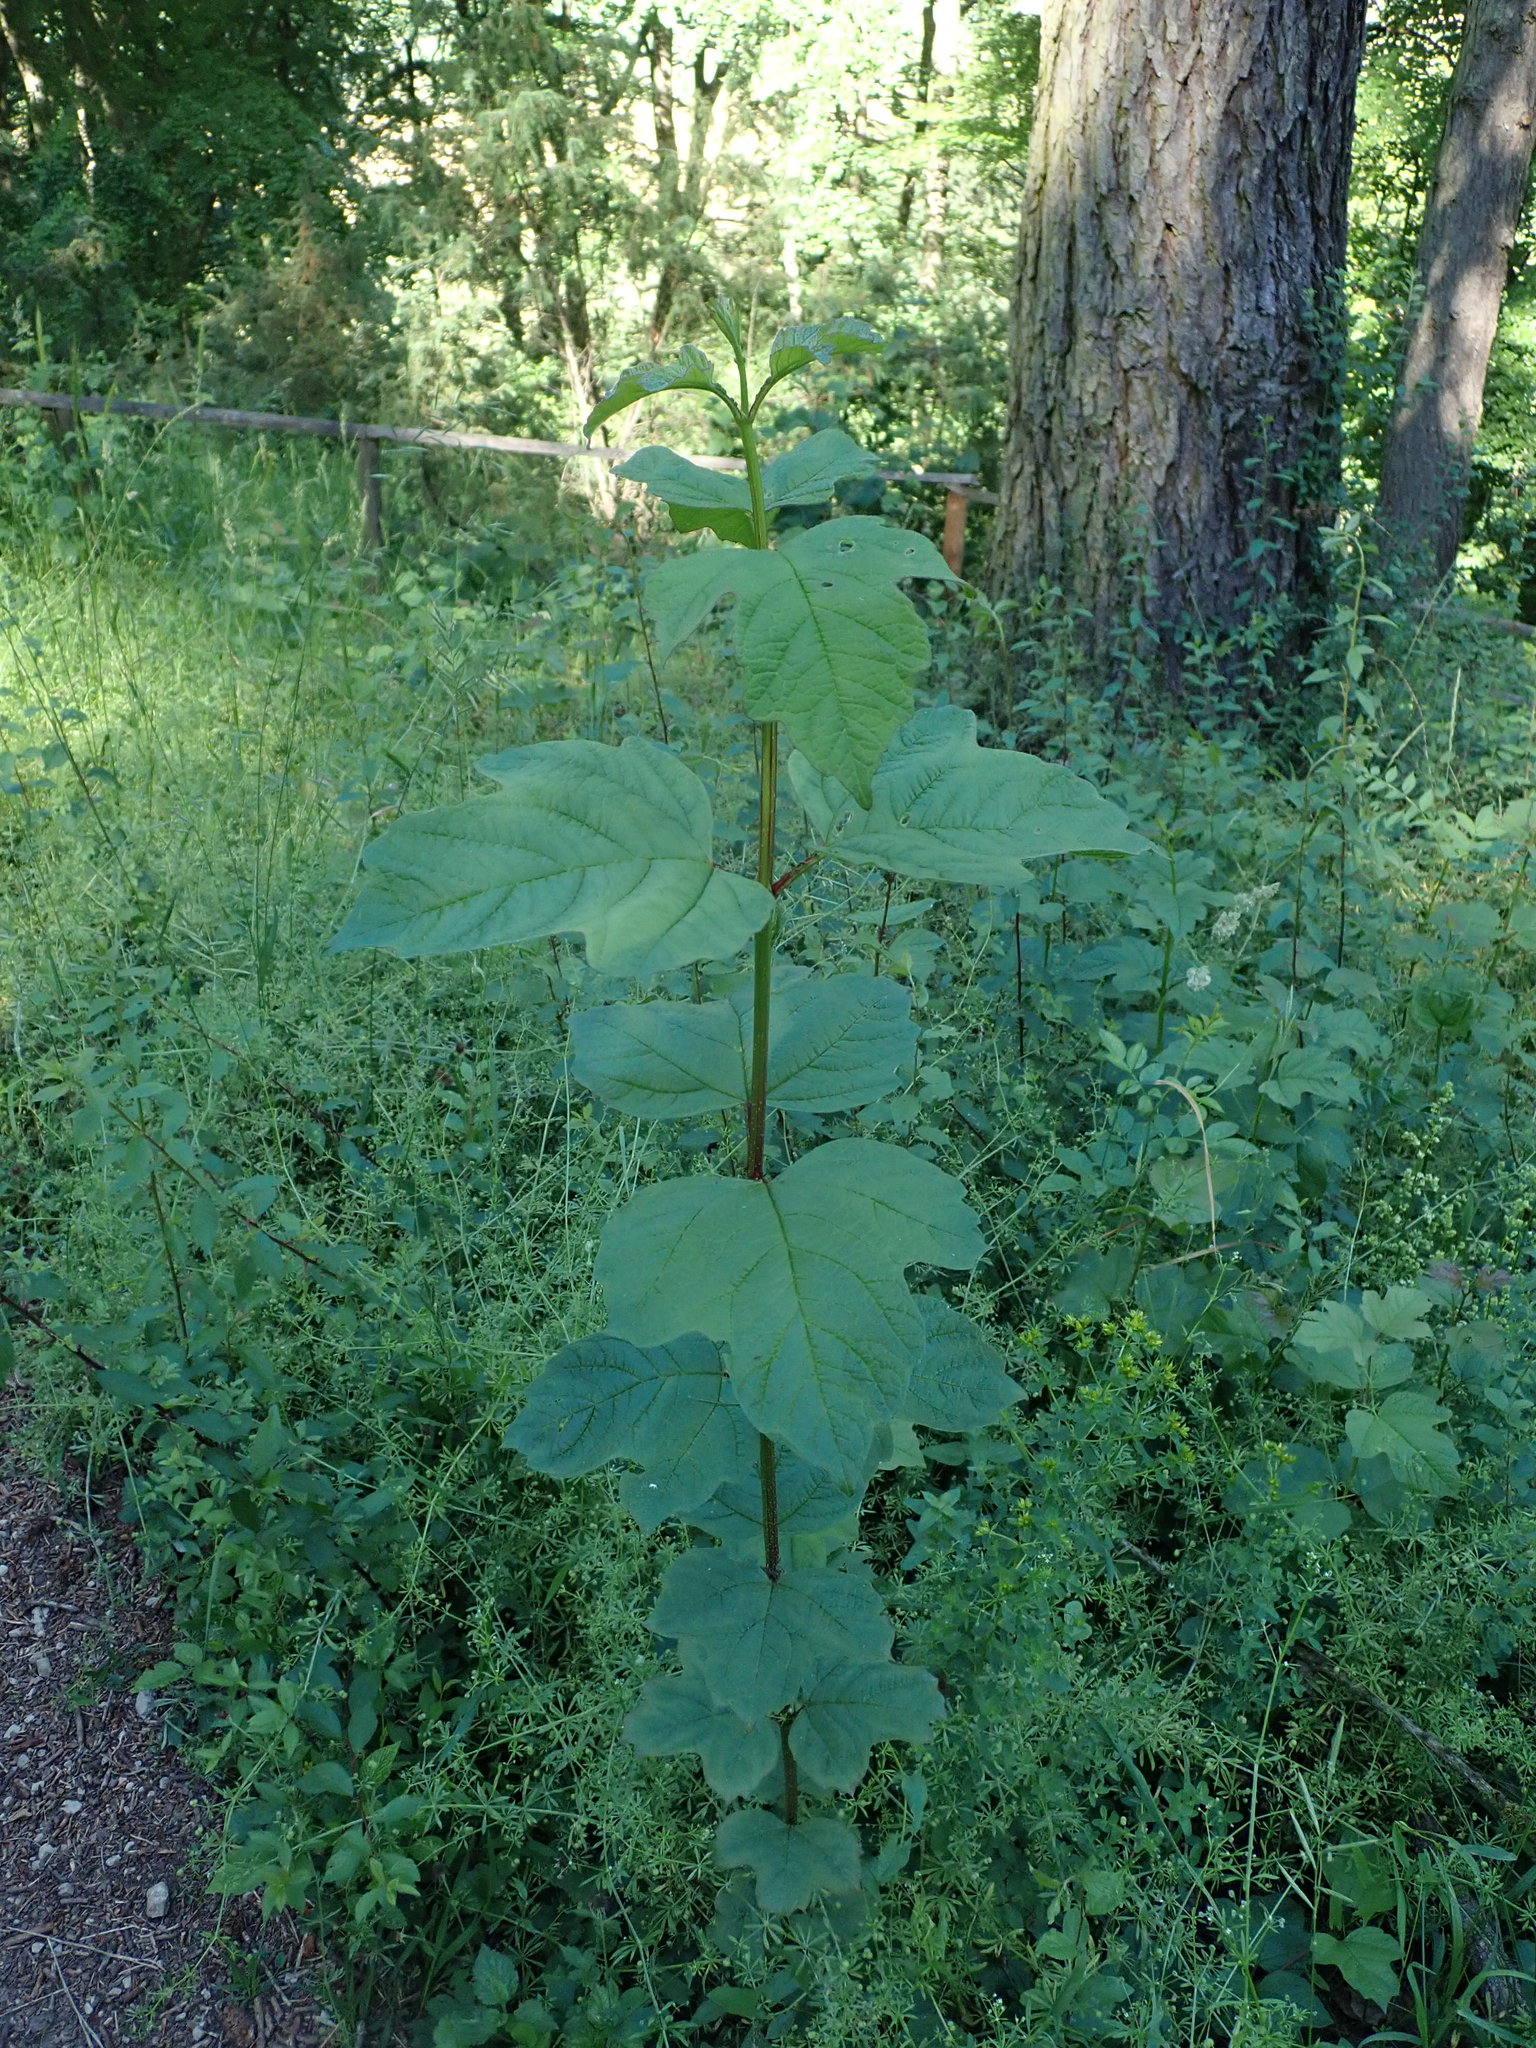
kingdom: Plantae
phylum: Tracheophyta
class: Magnoliopsida
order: Dipsacales
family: Viburnaceae
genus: Viburnum
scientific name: Viburnum opulus
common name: Guelder-rose
